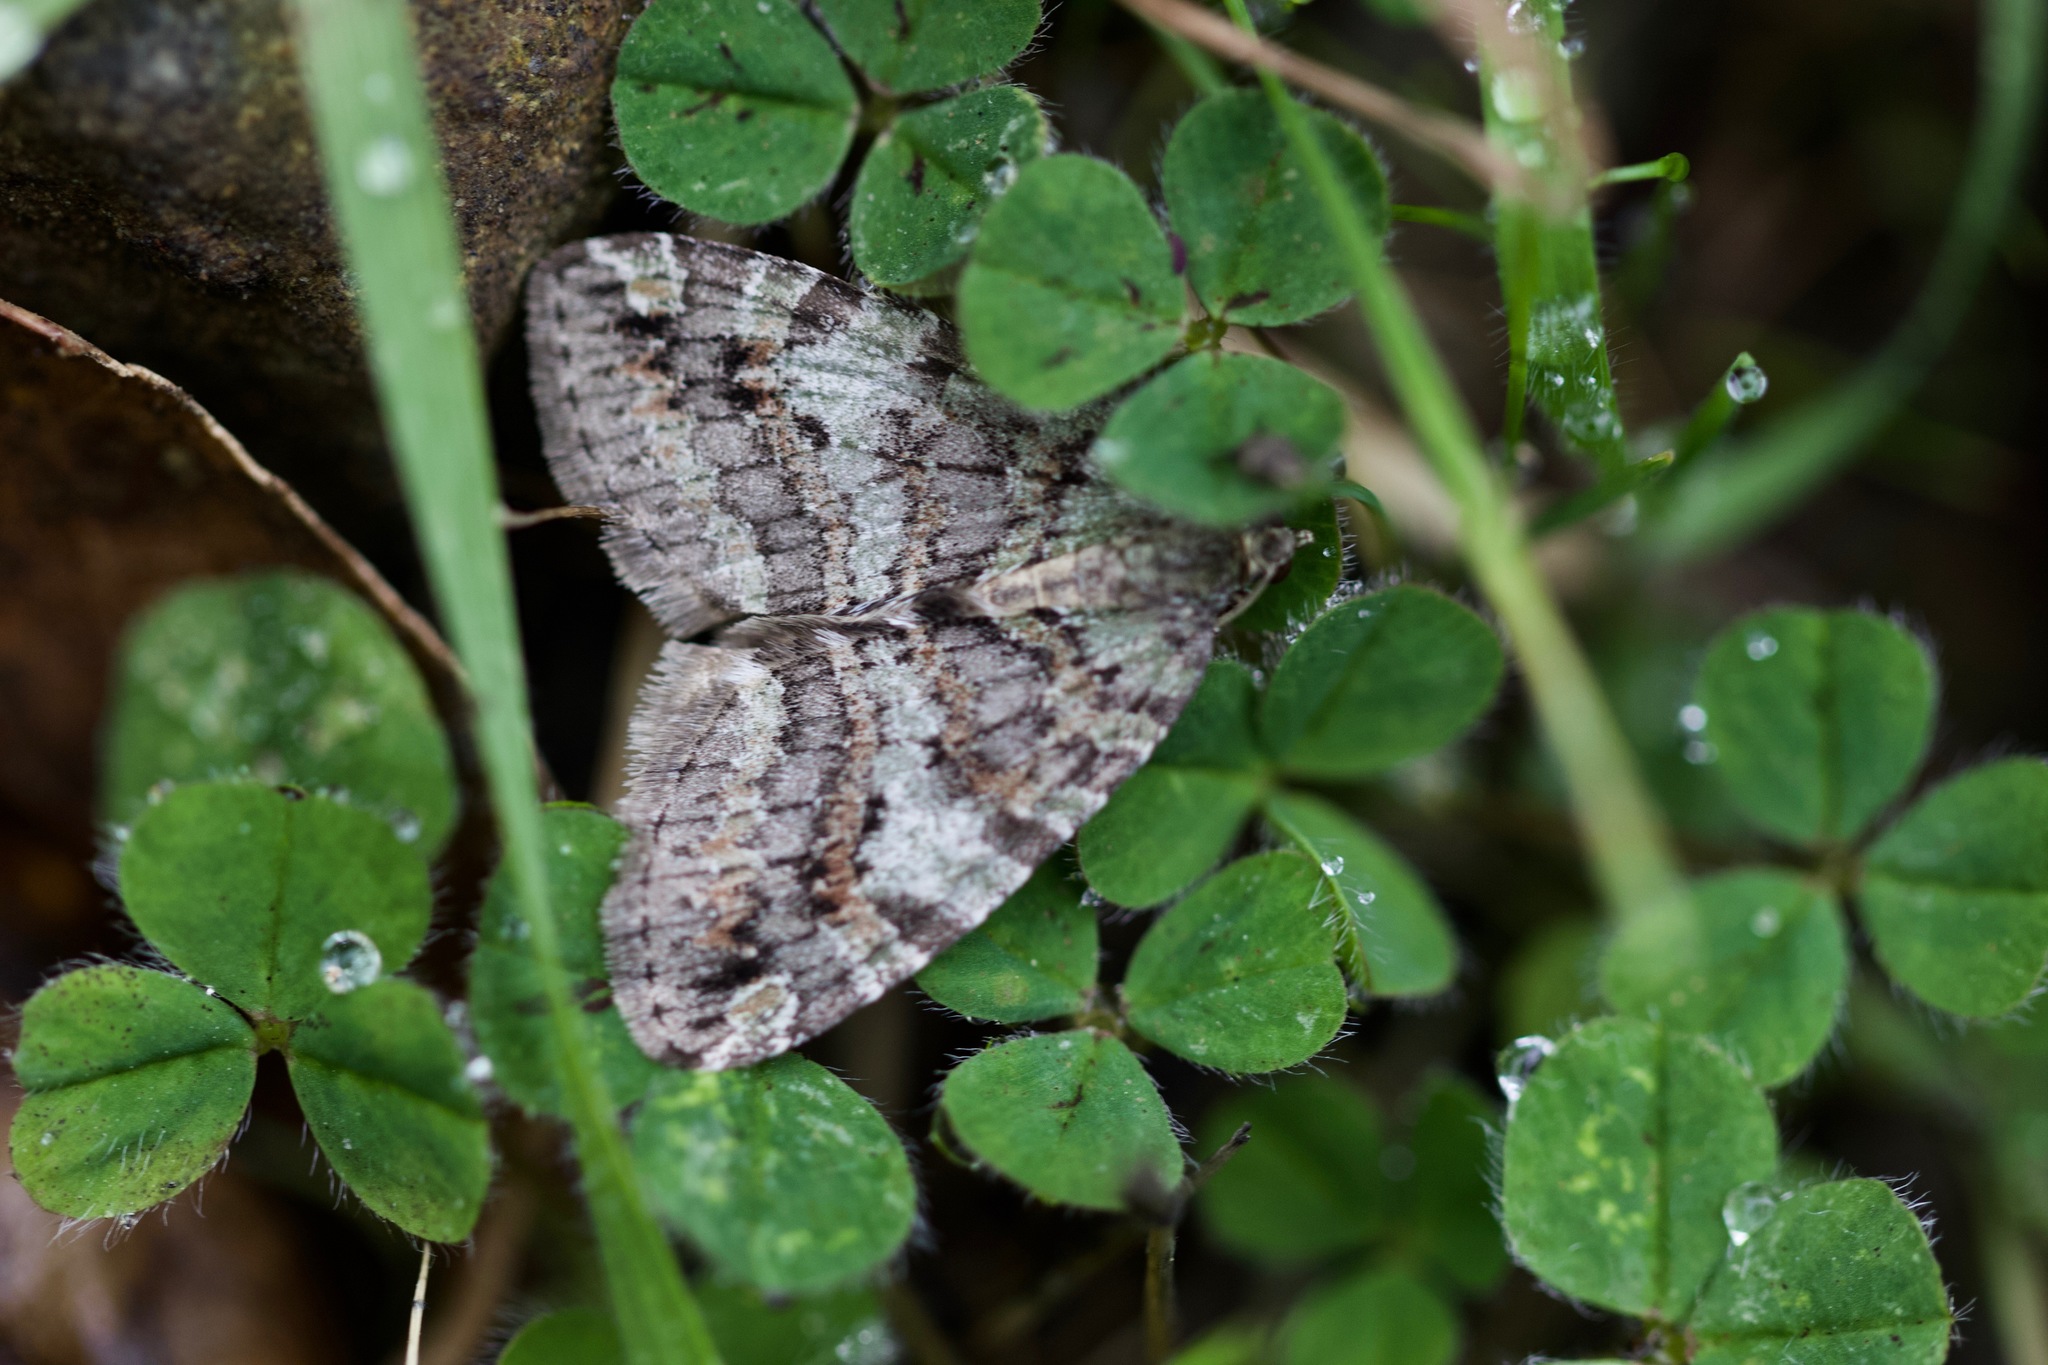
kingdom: Animalia
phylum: Arthropoda
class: Insecta
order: Lepidoptera
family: Geometridae
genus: Hydriomena
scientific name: Hydriomena nubilofasciata
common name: Oak winter highflier moth
